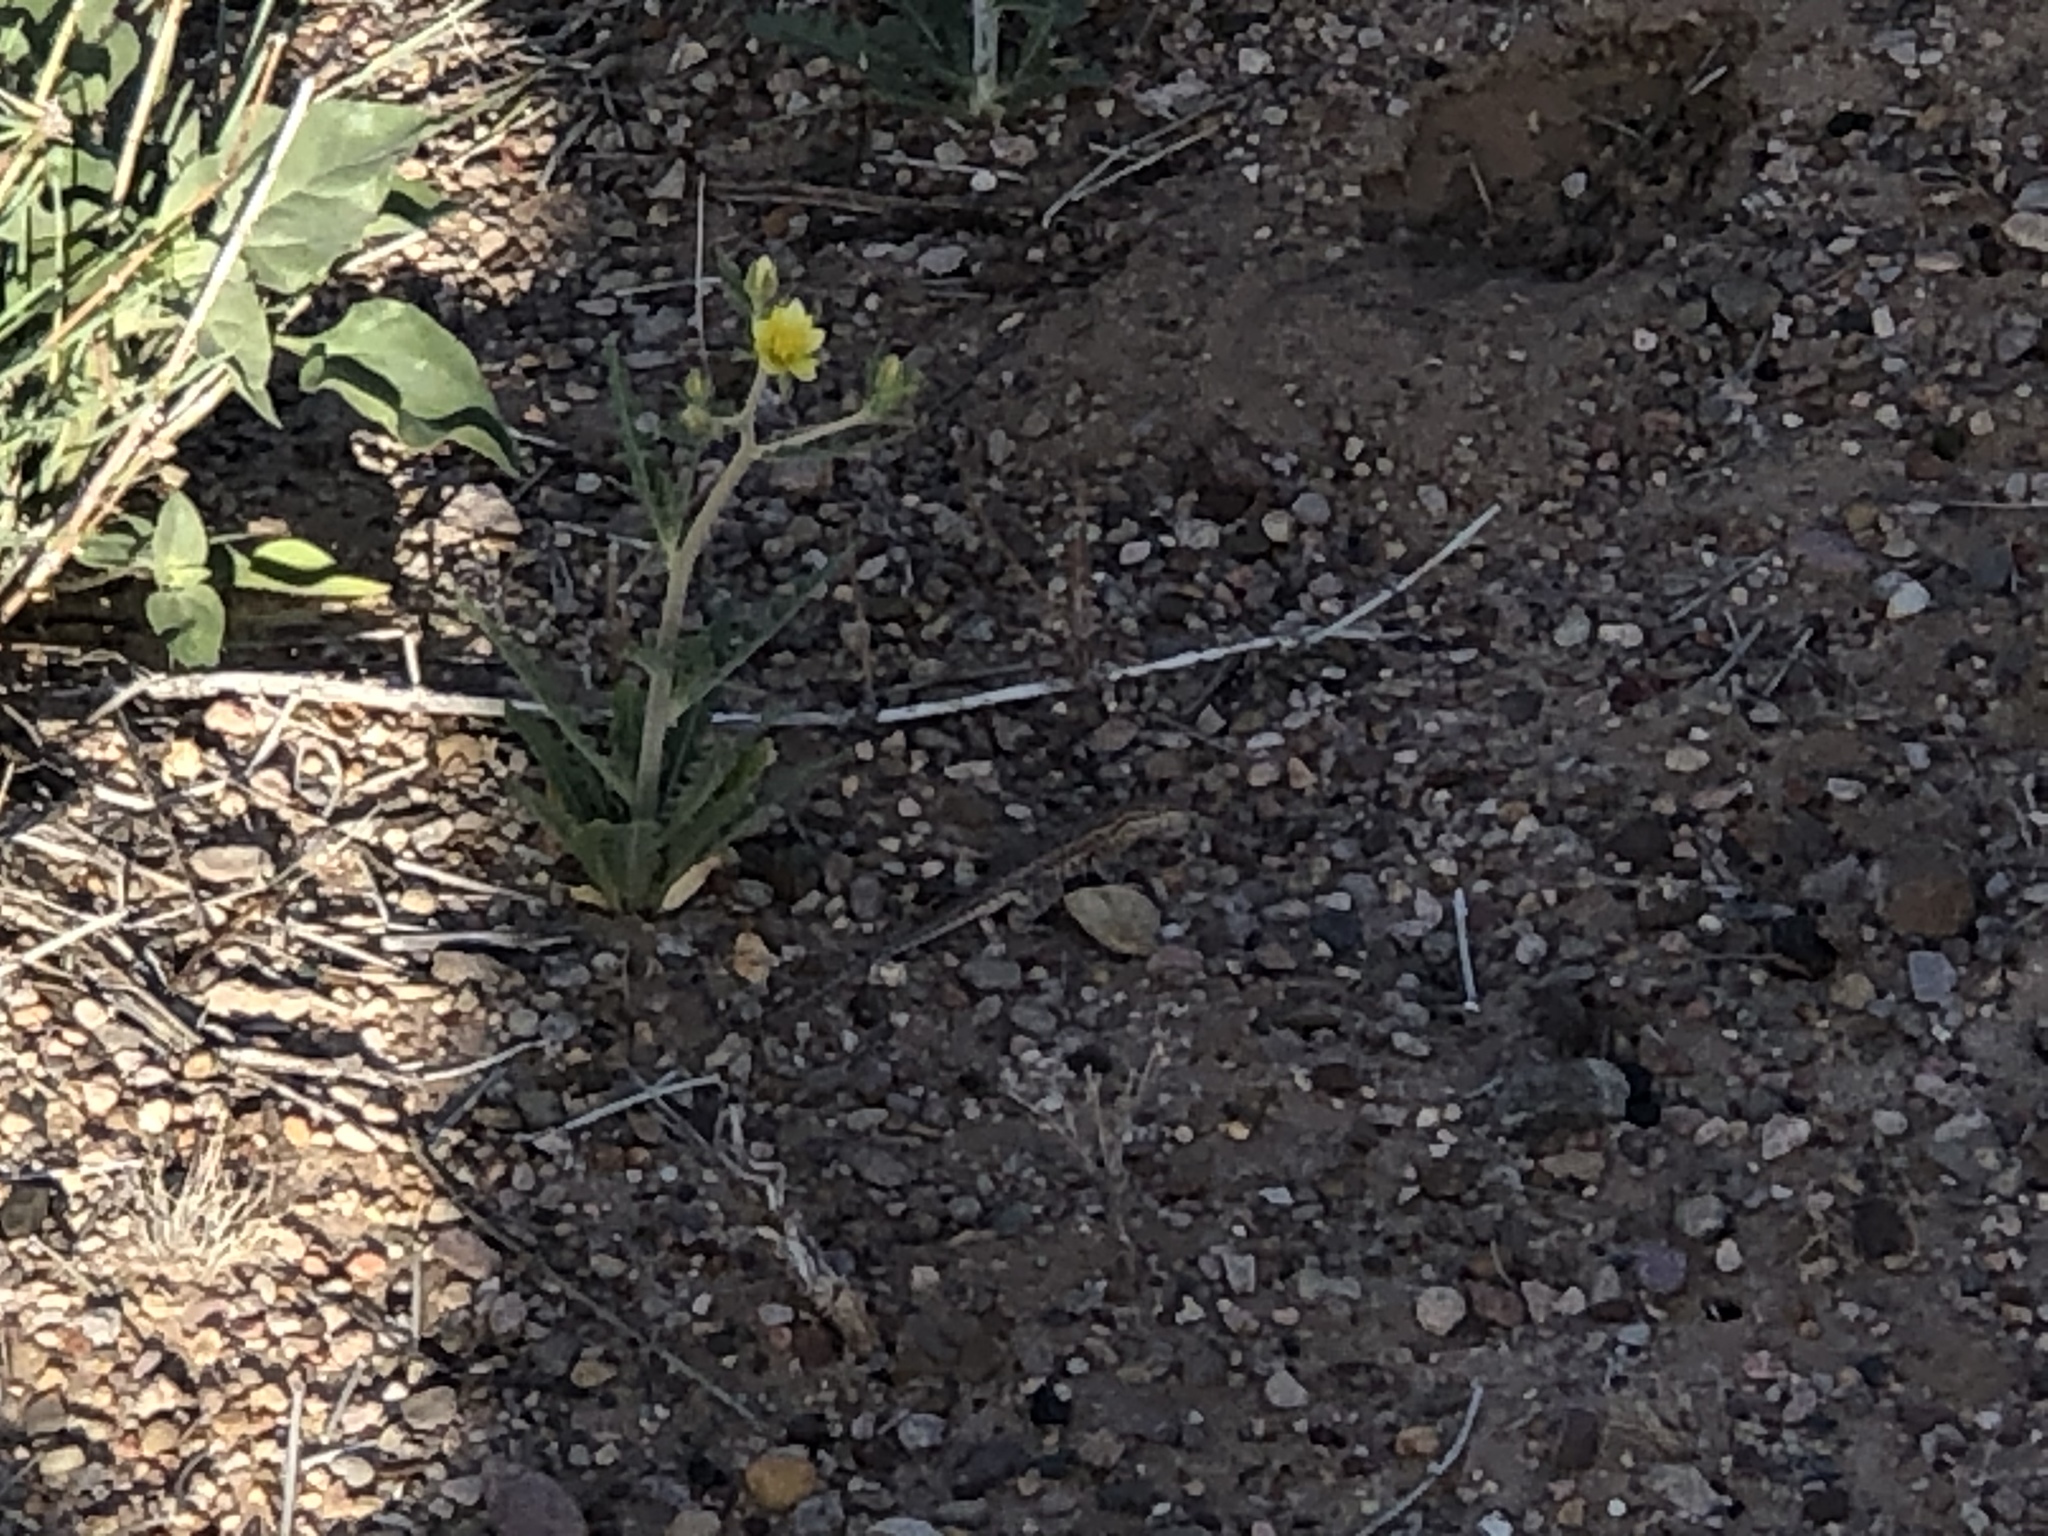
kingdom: Animalia
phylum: Chordata
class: Squamata
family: Phrynosomatidae
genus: Uta
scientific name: Uta stansburiana
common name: Side-blotched lizard
